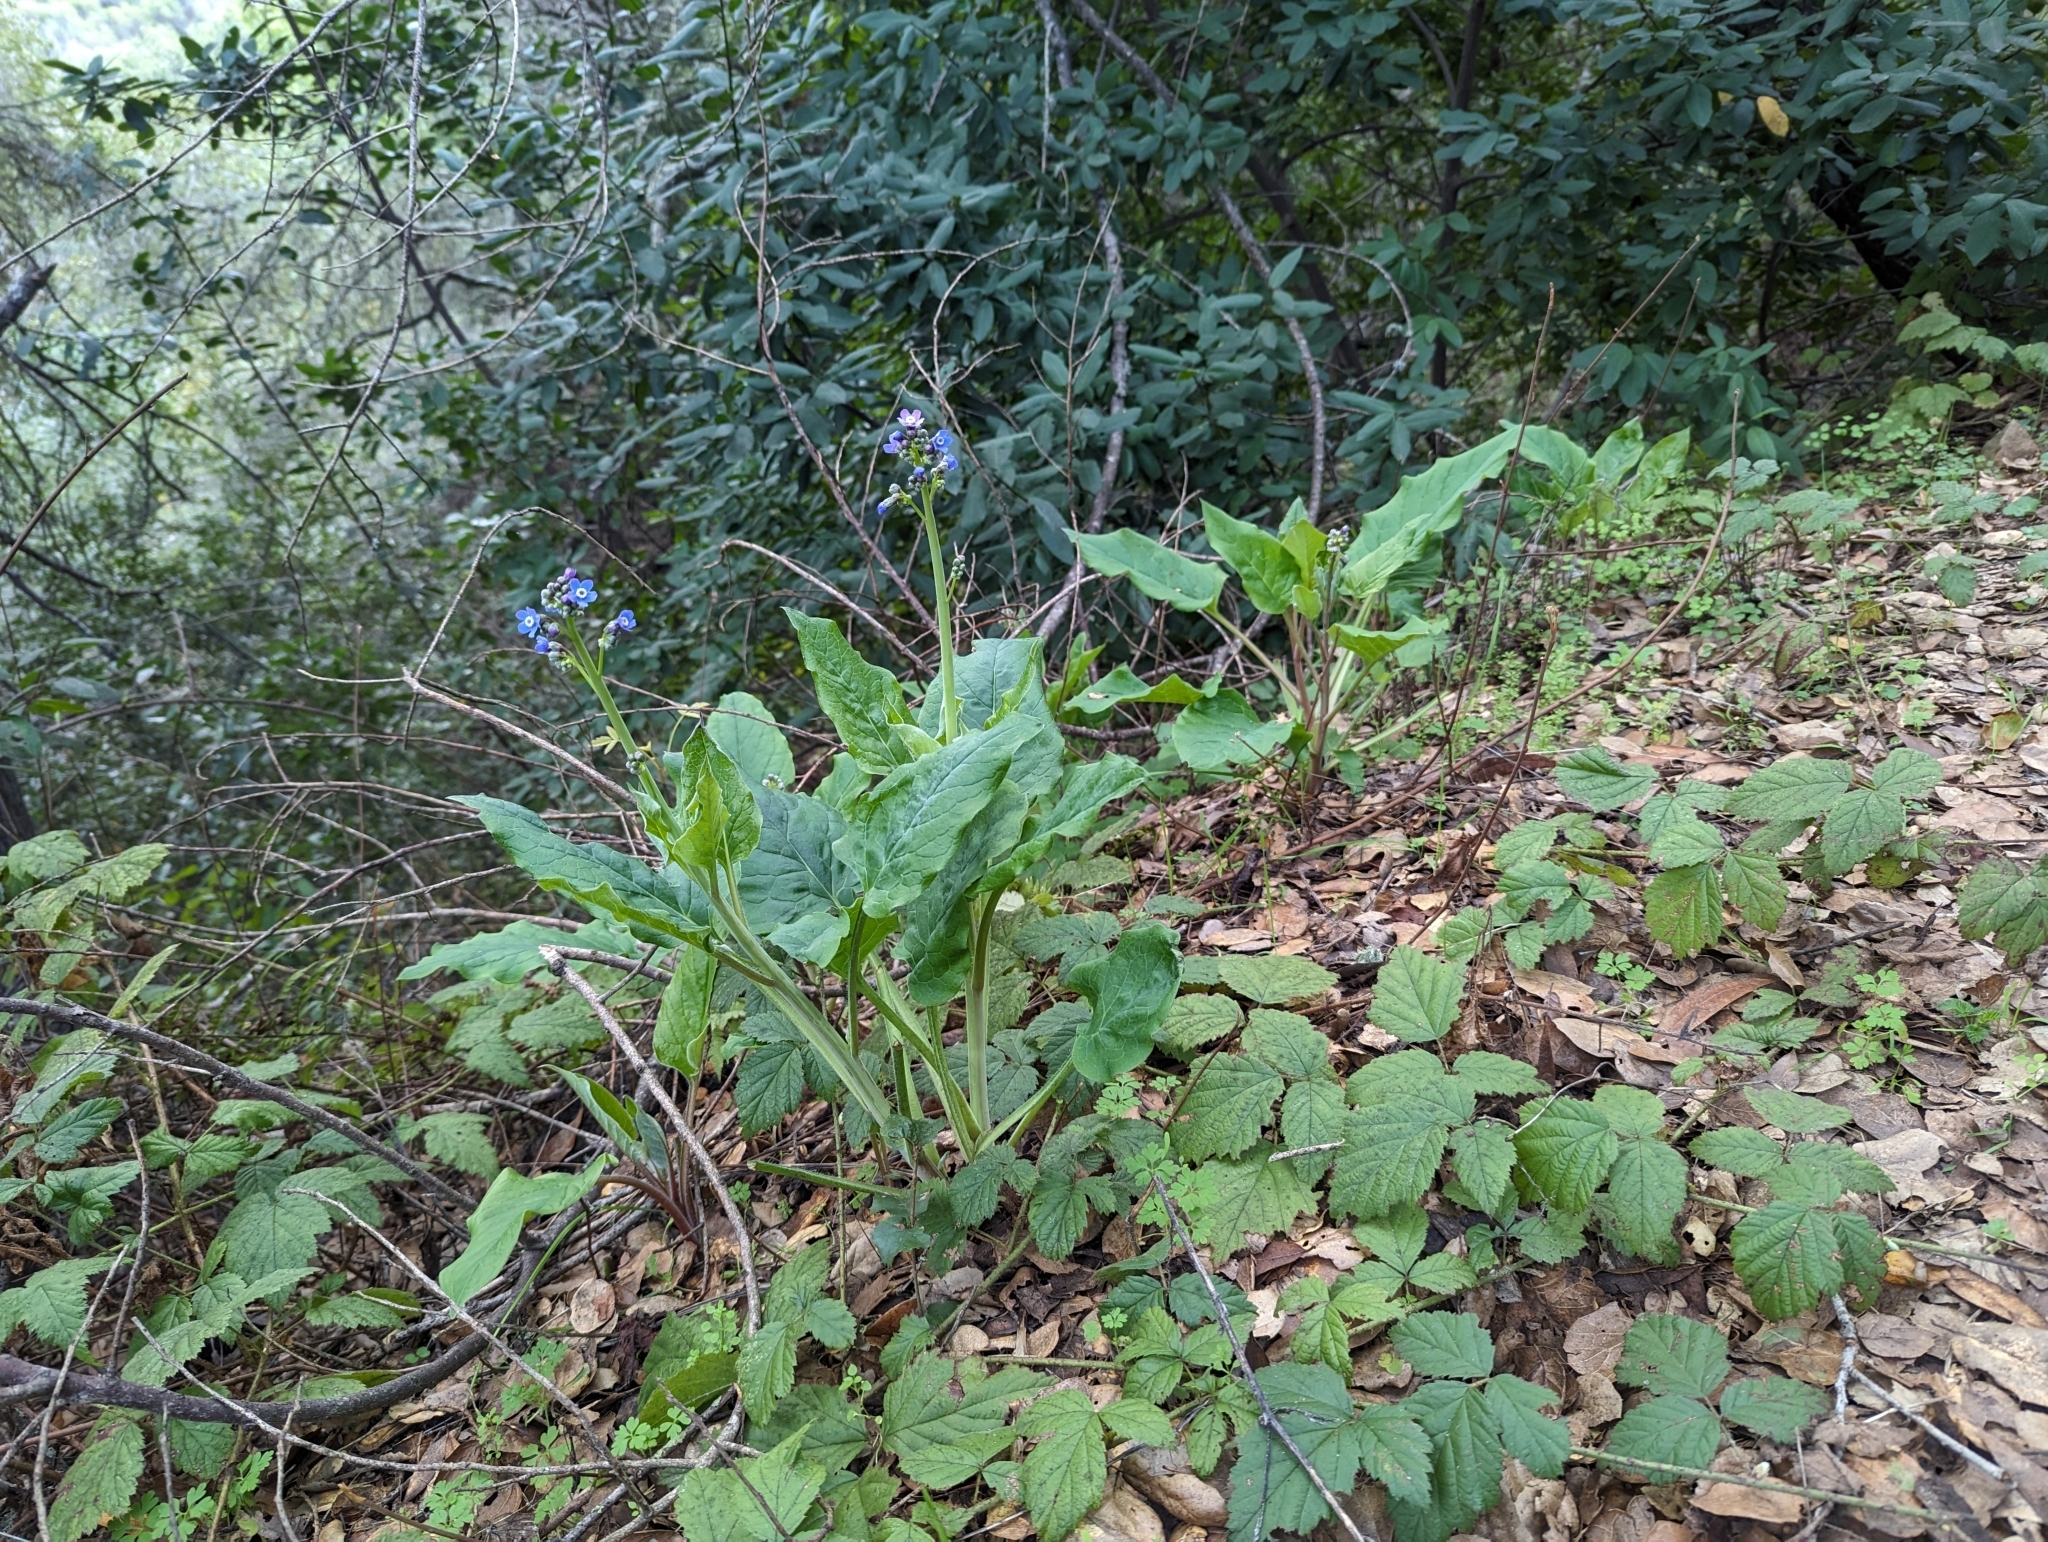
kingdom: Plantae
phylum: Tracheophyta
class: Magnoliopsida
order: Boraginales
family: Boraginaceae
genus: Adelinia
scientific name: Adelinia grande
